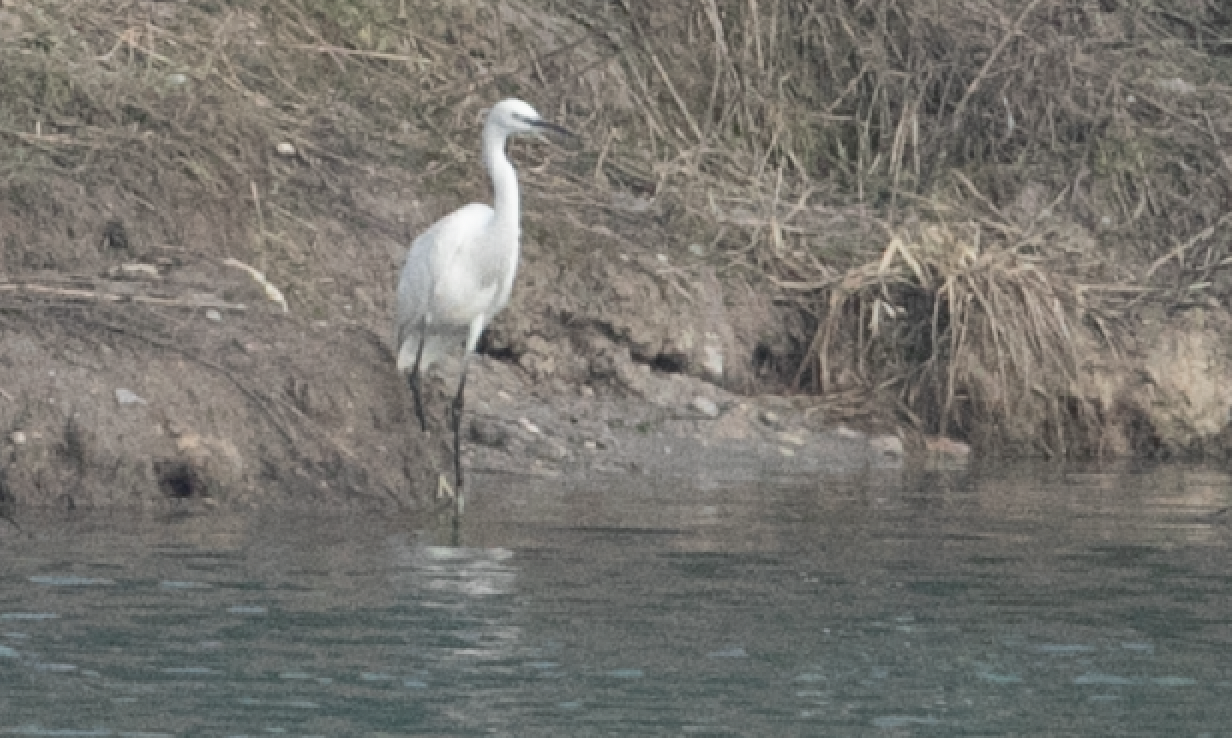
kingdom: Animalia
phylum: Chordata
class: Aves
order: Pelecaniformes
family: Ardeidae
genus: Egretta
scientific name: Egretta garzetta
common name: Little egret
